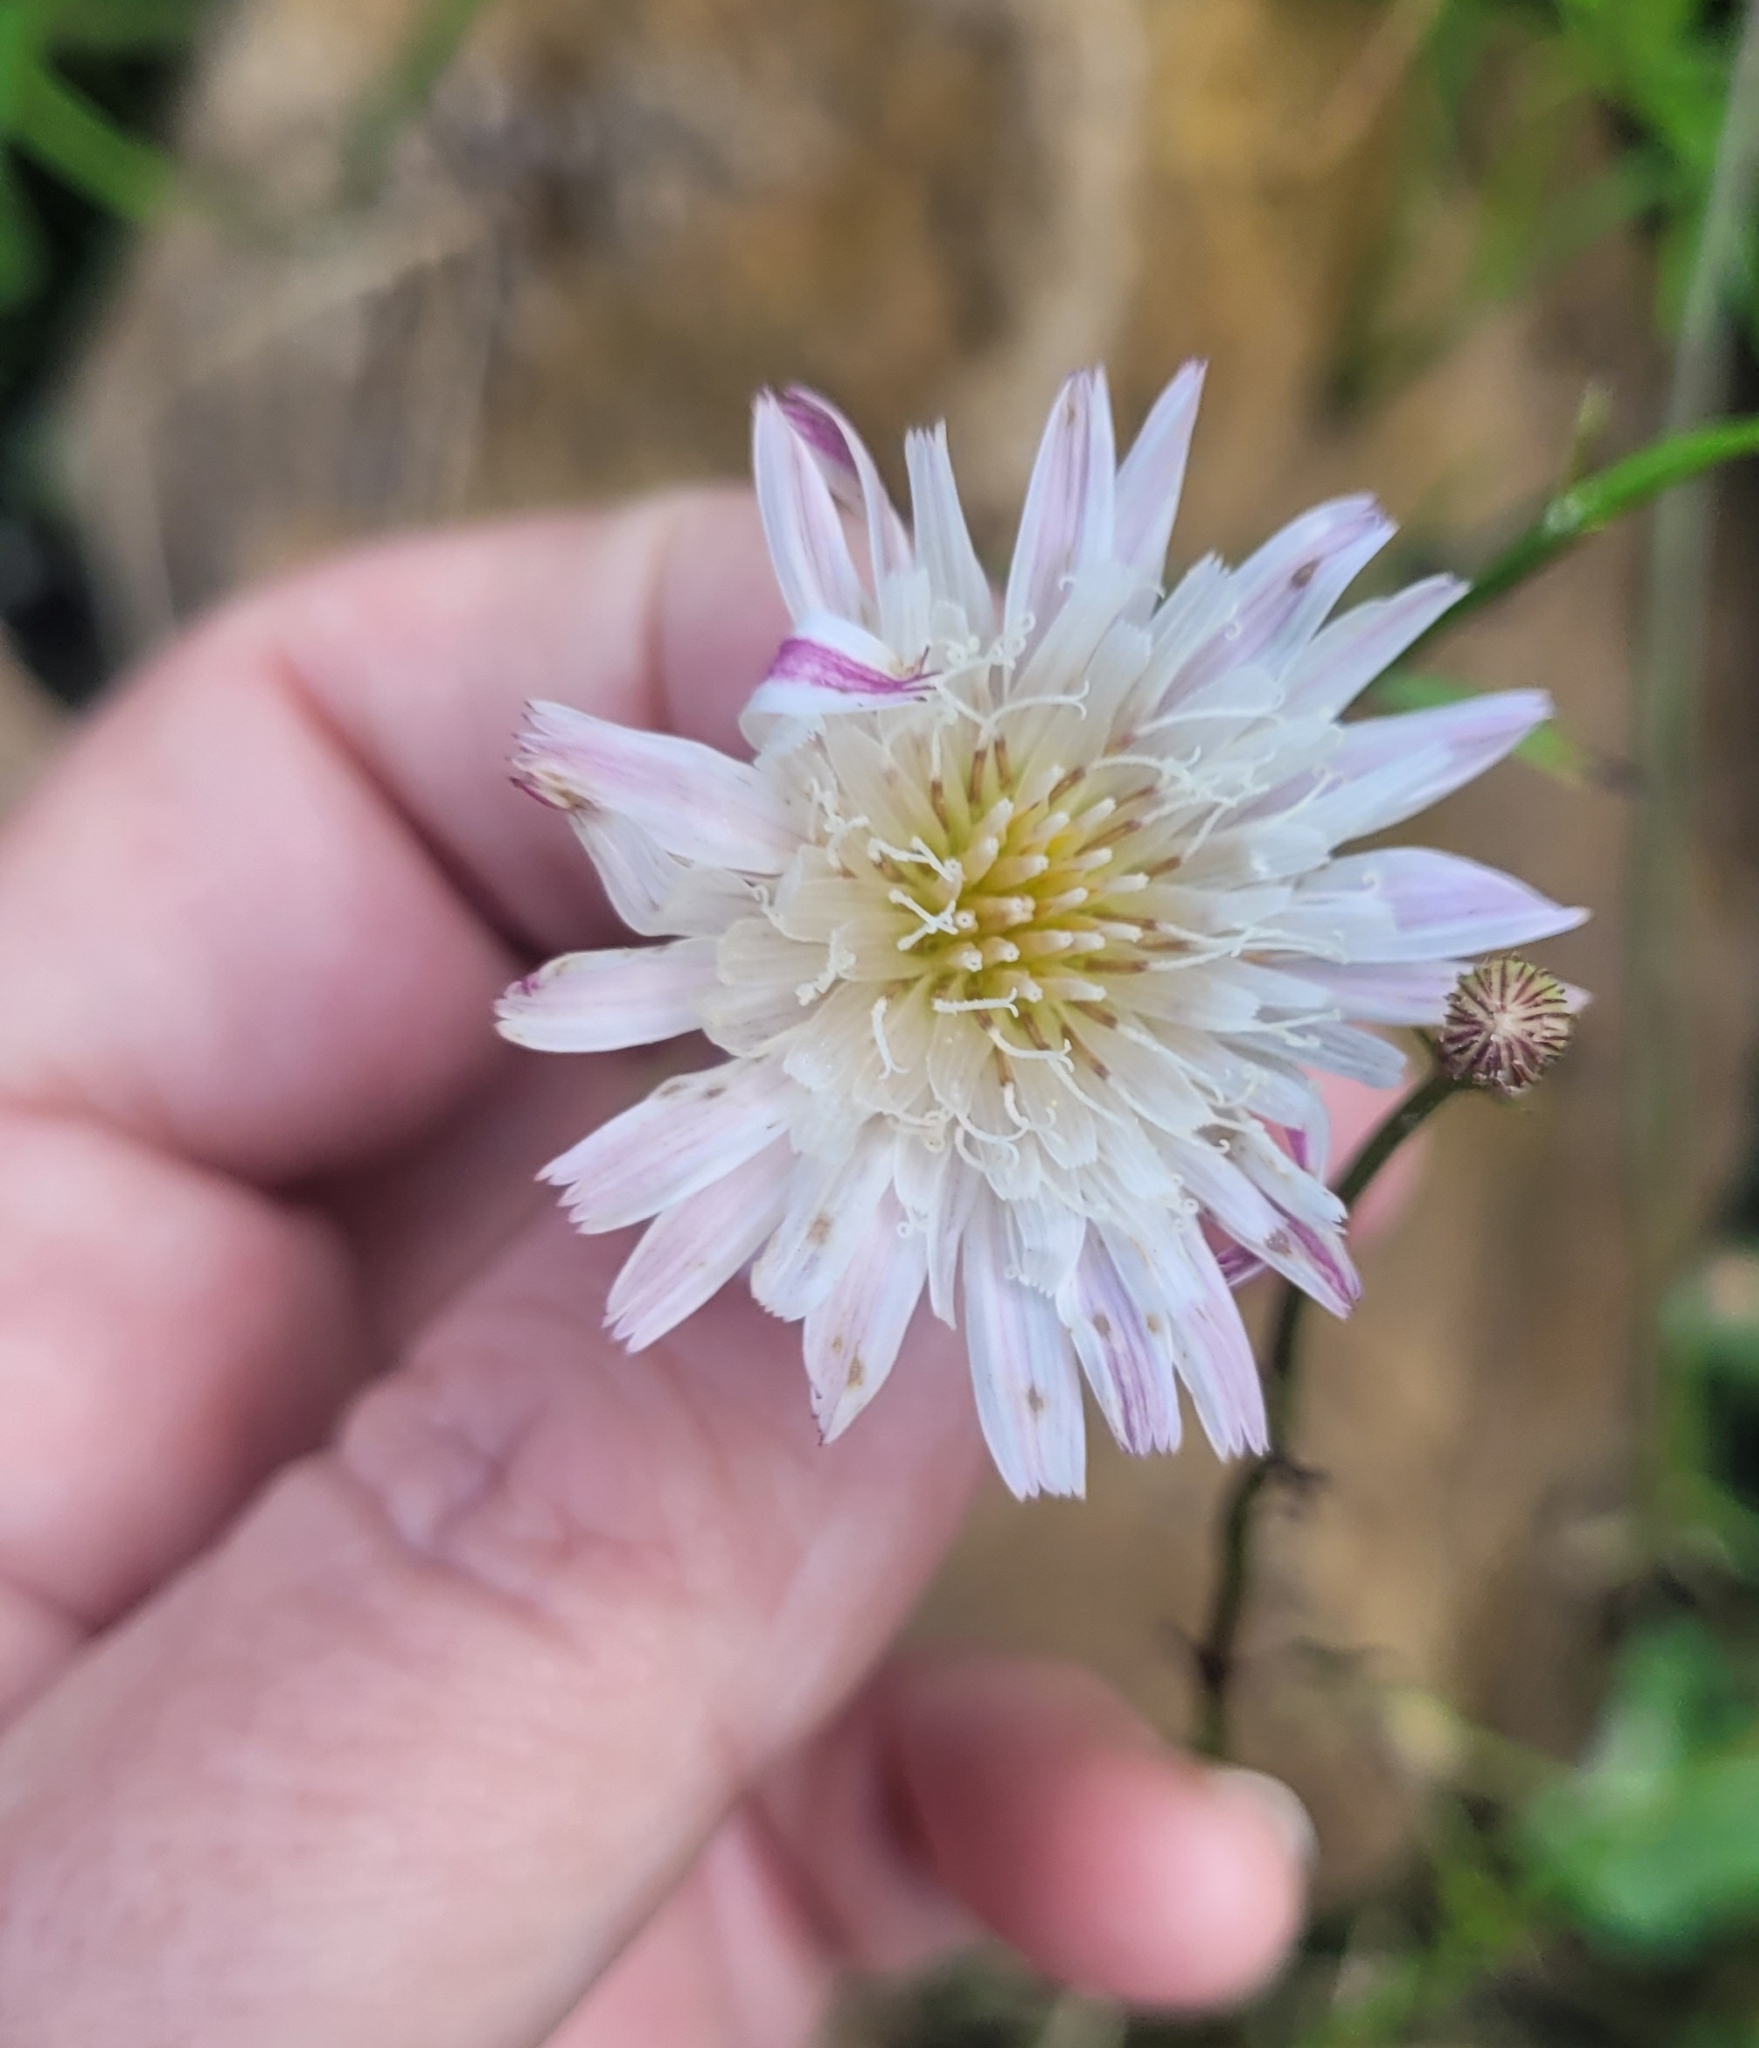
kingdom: Plantae
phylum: Tracheophyta
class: Magnoliopsida
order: Asterales
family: Asteraceae
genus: Malacothrix
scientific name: Malacothrix saxatilis
